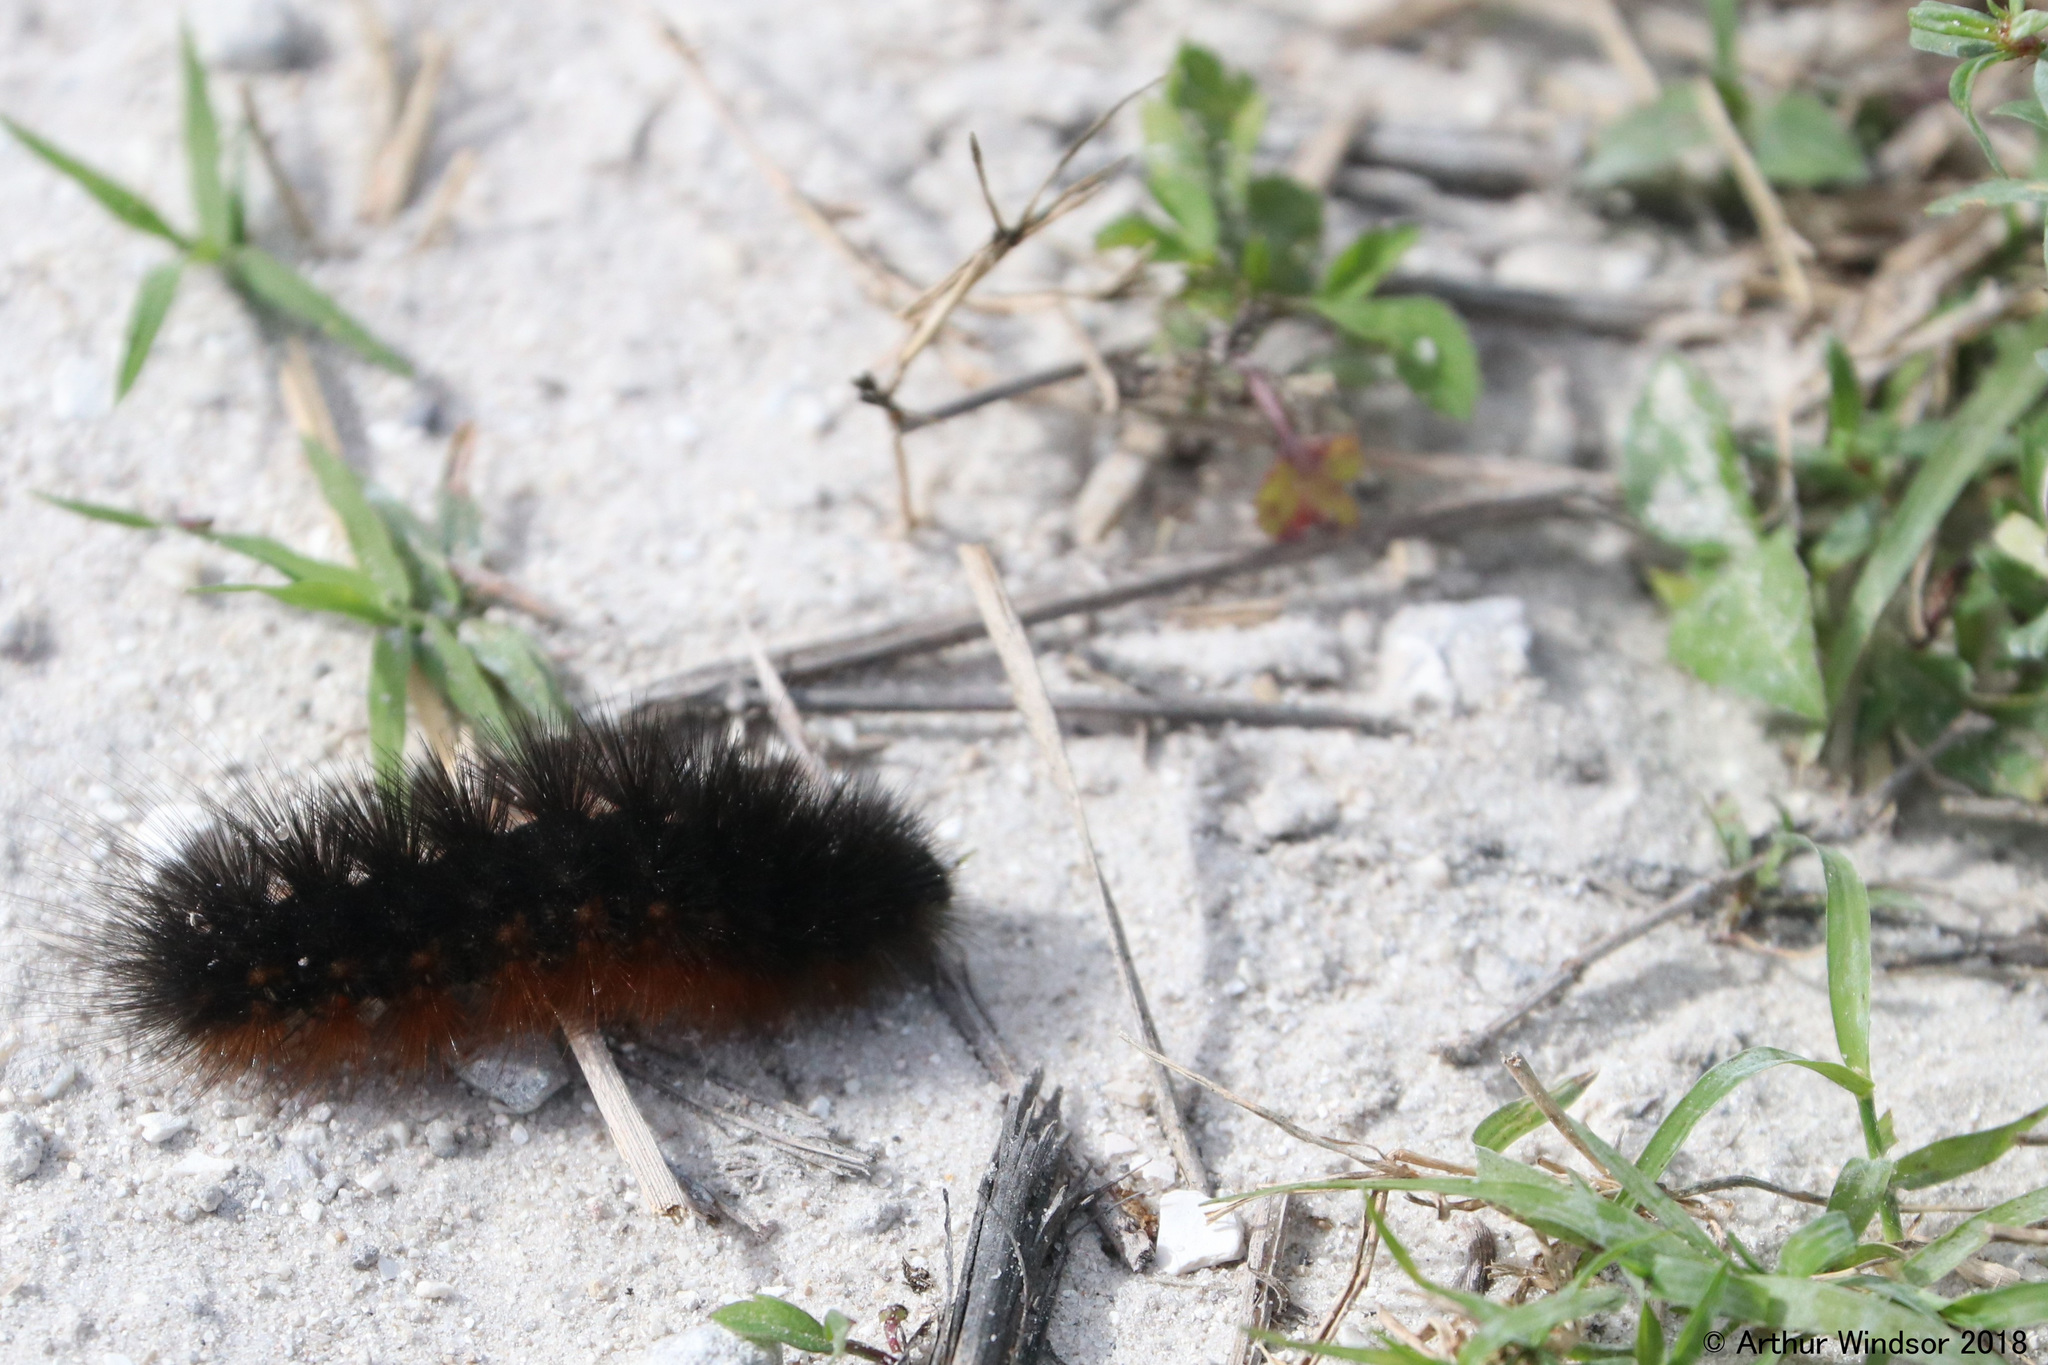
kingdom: Animalia
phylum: Arthropoda
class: Insecta
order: Lepidoptera
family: Erebidae
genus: Pyrrharctia
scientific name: Pyrrharctia isabella
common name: Isabella tiger moth
